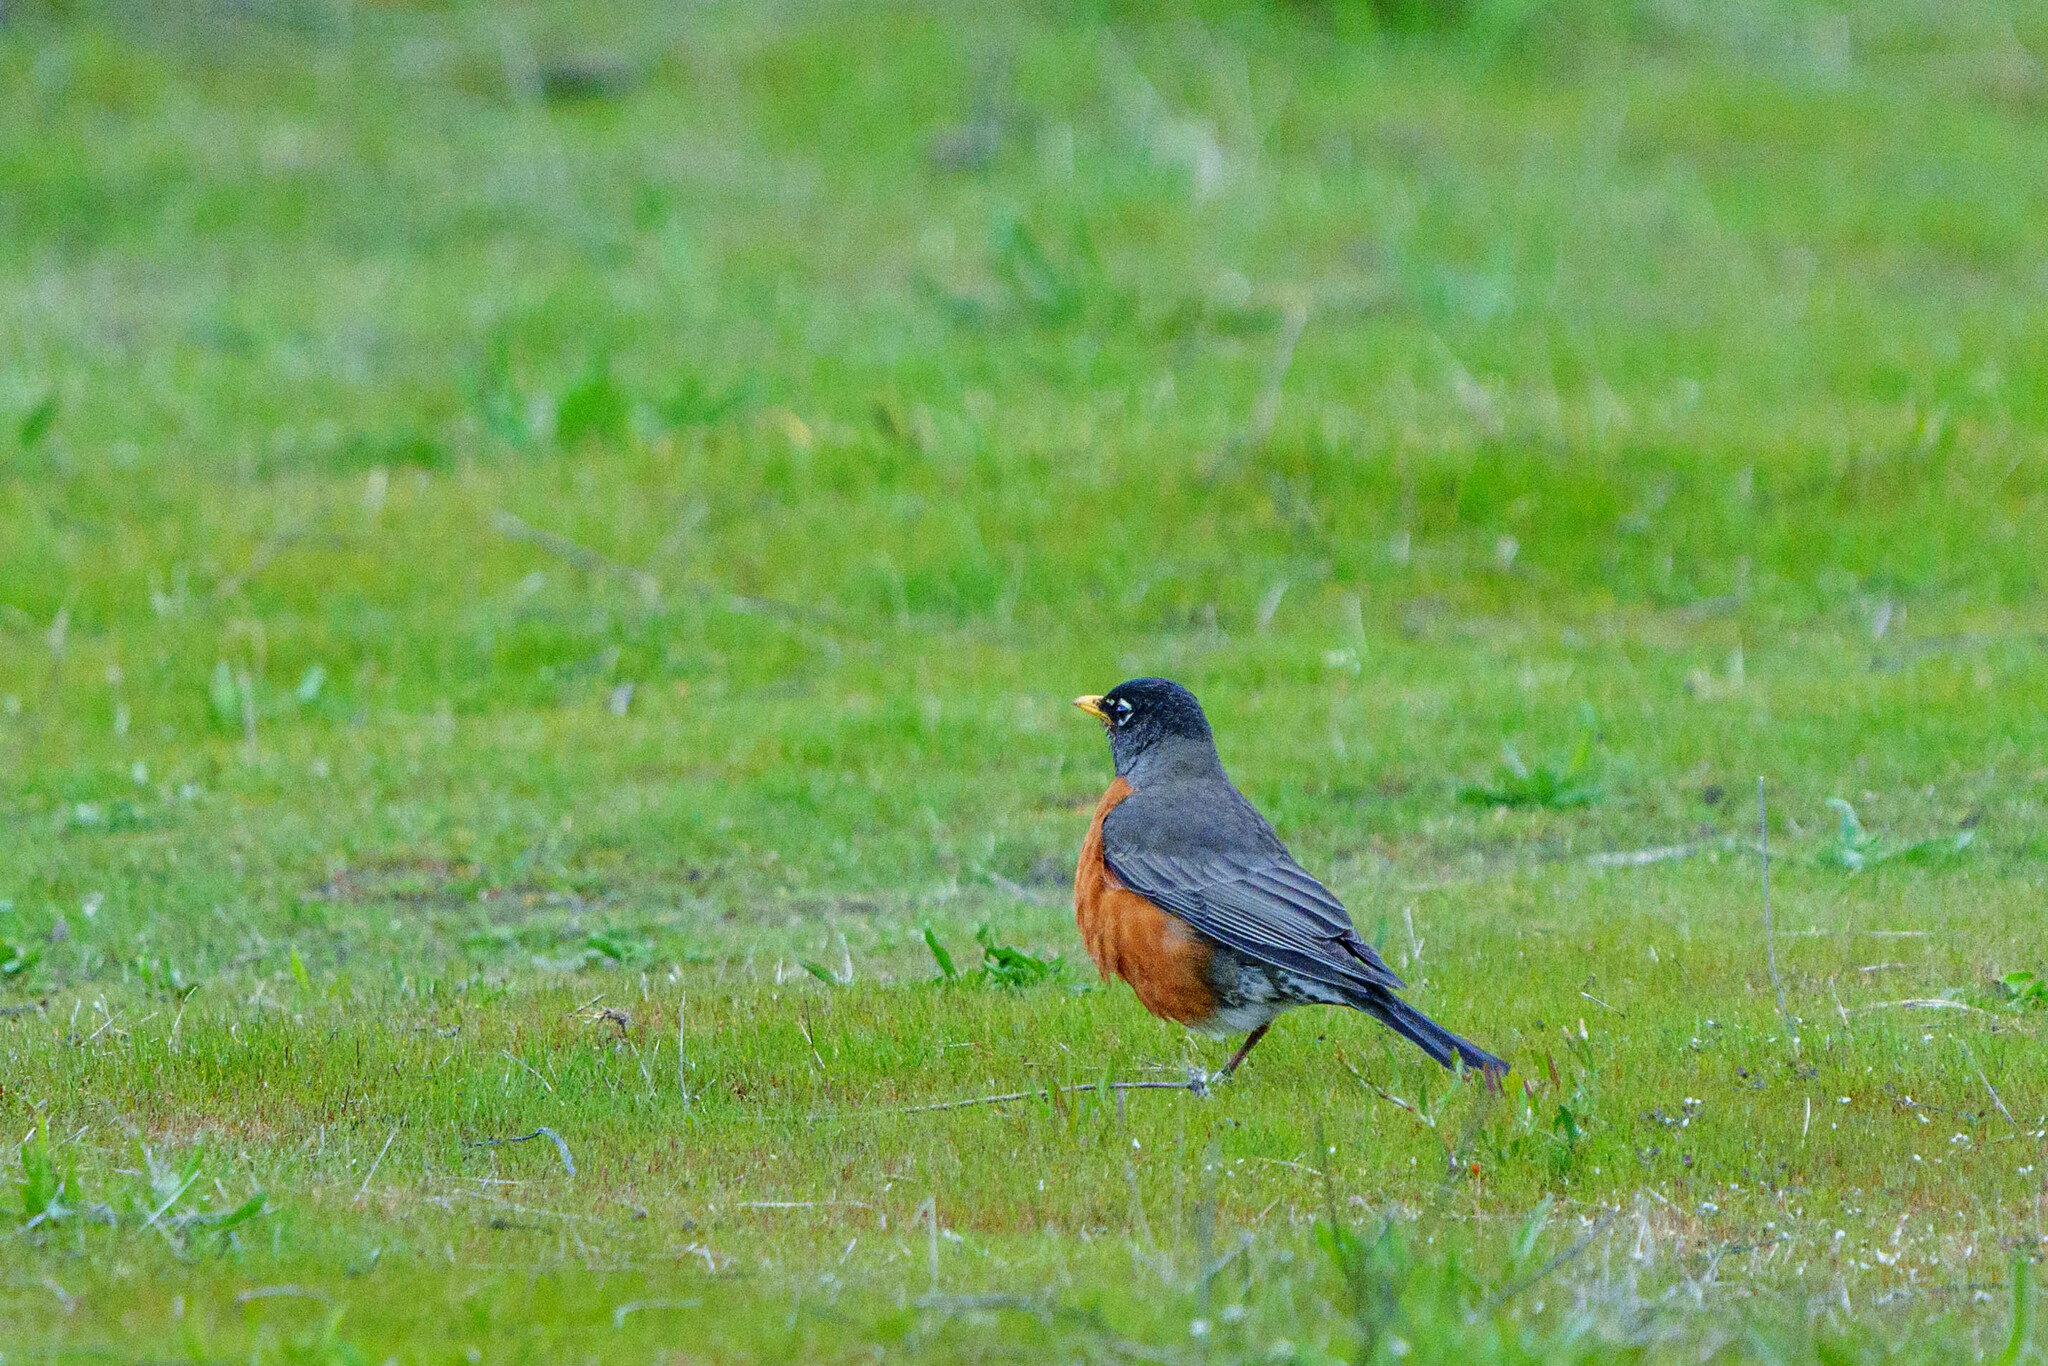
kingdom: Animalia
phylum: Chordata
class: Aves
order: Passeriformes
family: Turdidae
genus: Turdus
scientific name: Turdus migratorius
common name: American robin
